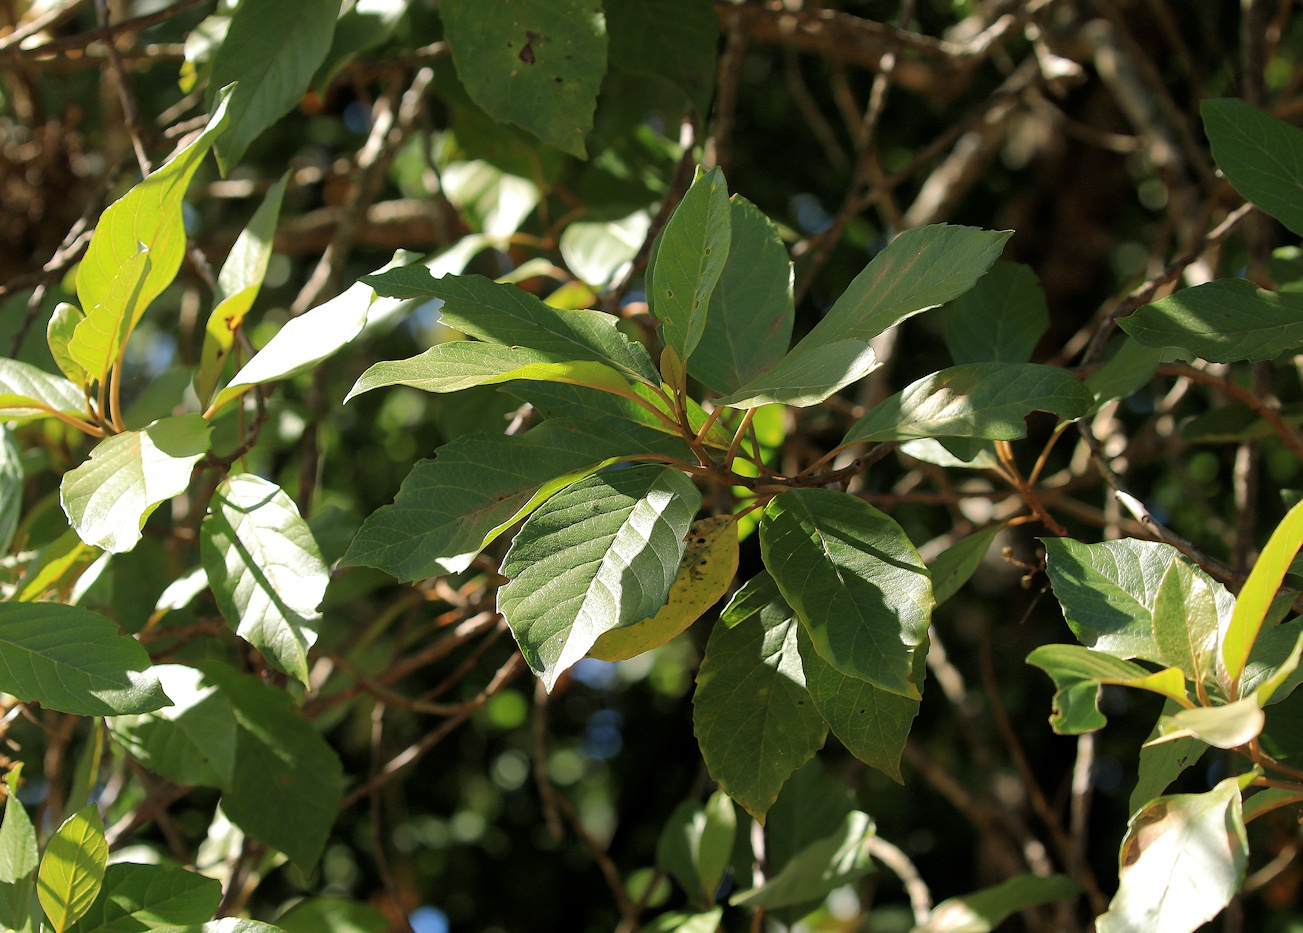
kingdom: Plantae
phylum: Tracheophyta
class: Magnoliopsida
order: Ericales
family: Primulaceae
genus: Maesa
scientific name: Maesa lanceolata
